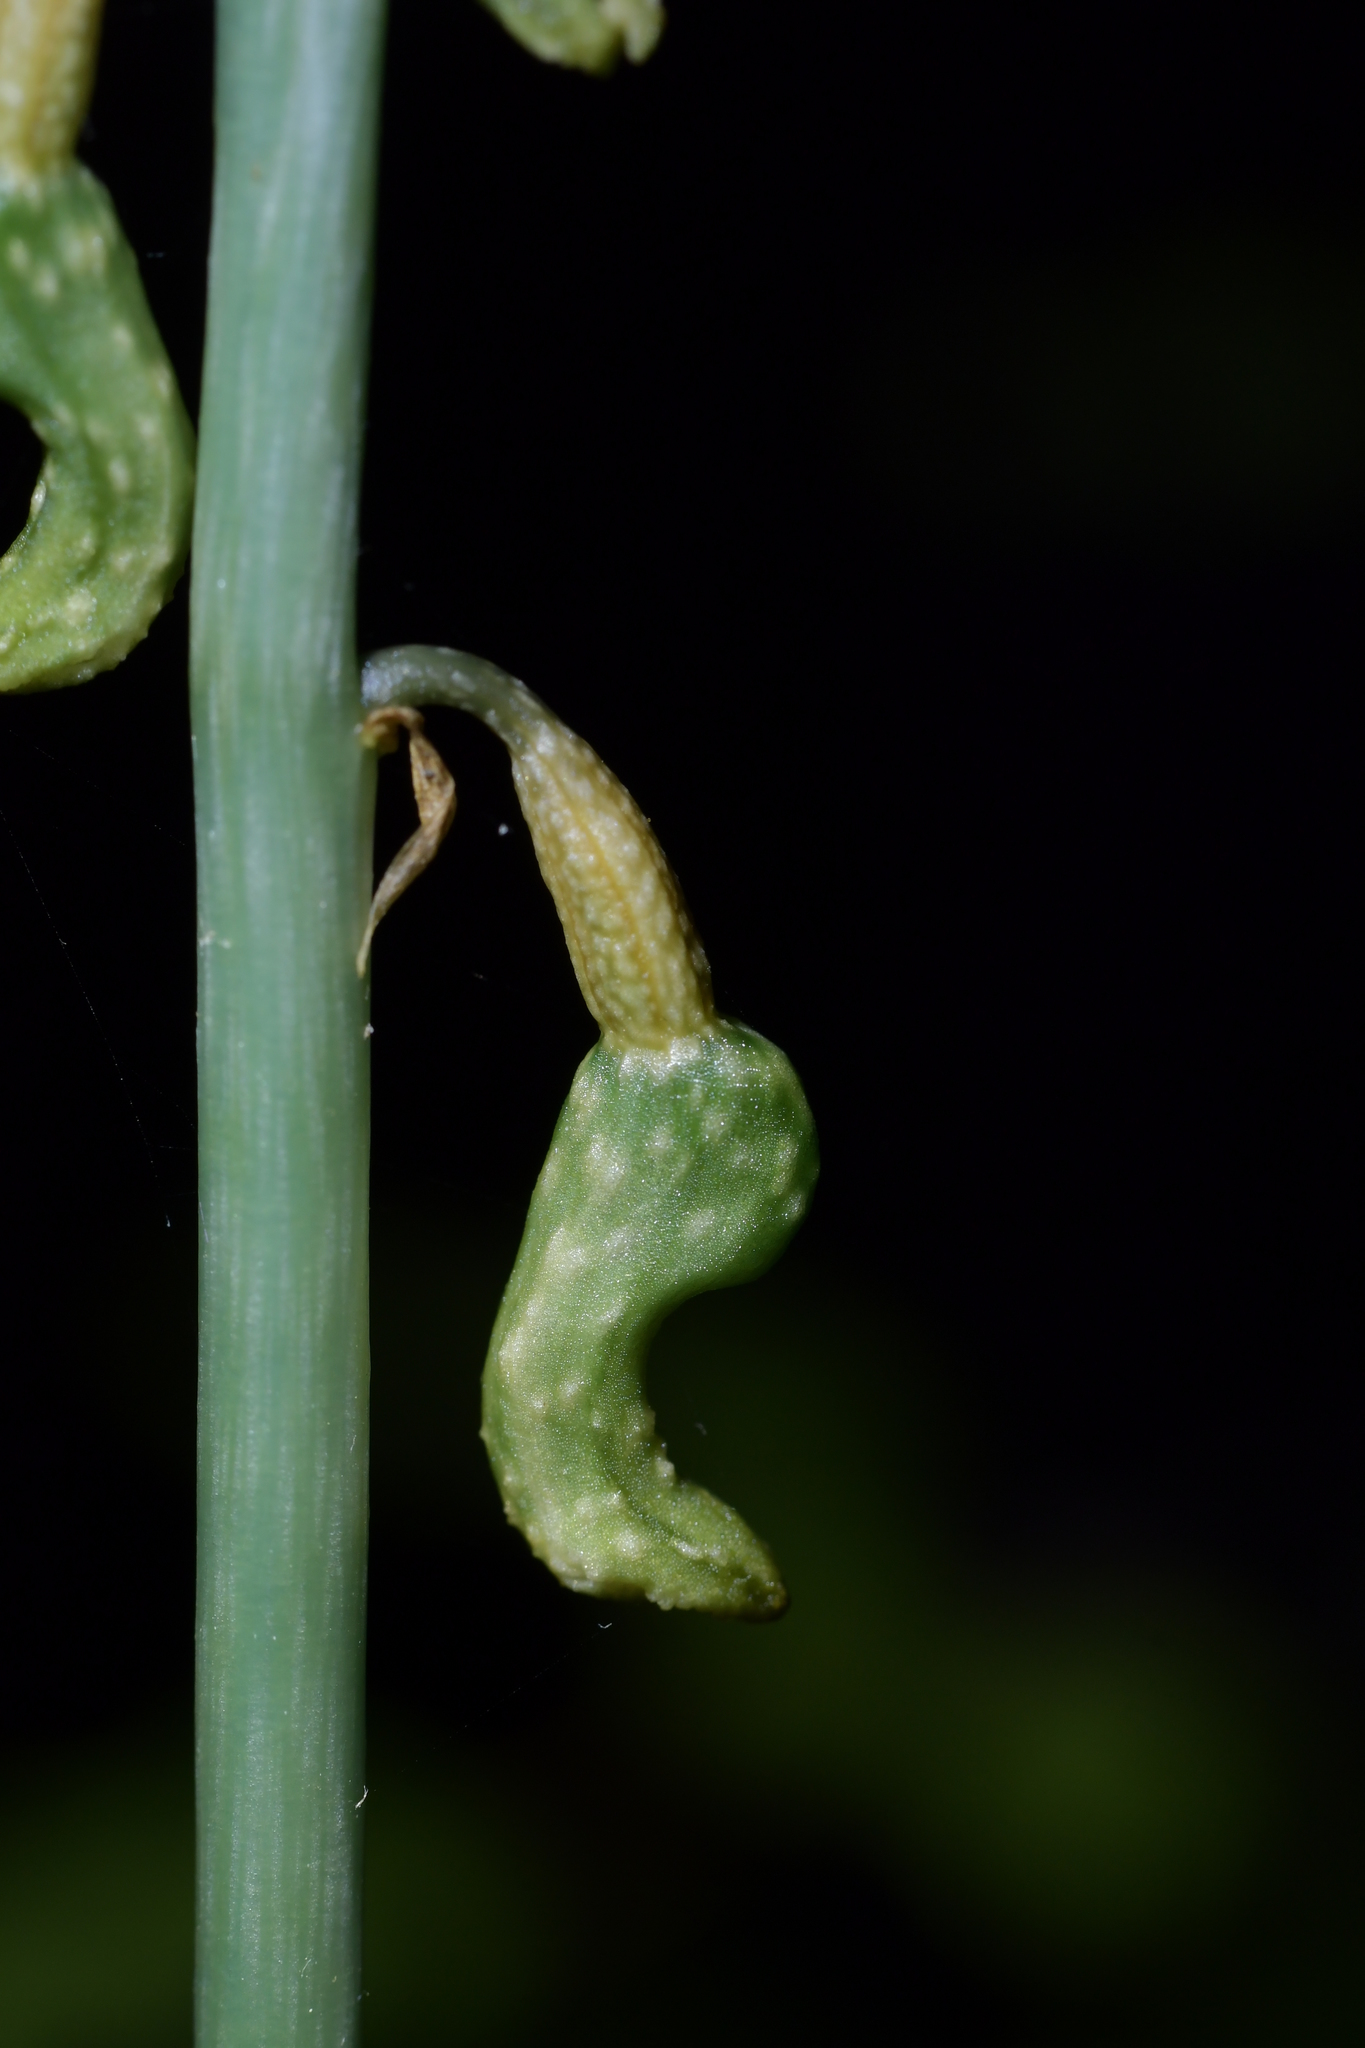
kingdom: Plantae
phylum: Tracheophyta
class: Liliopsida
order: Asparagales
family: Orchidaceae
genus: Gastrodia
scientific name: Gastrodia cunninghamii
